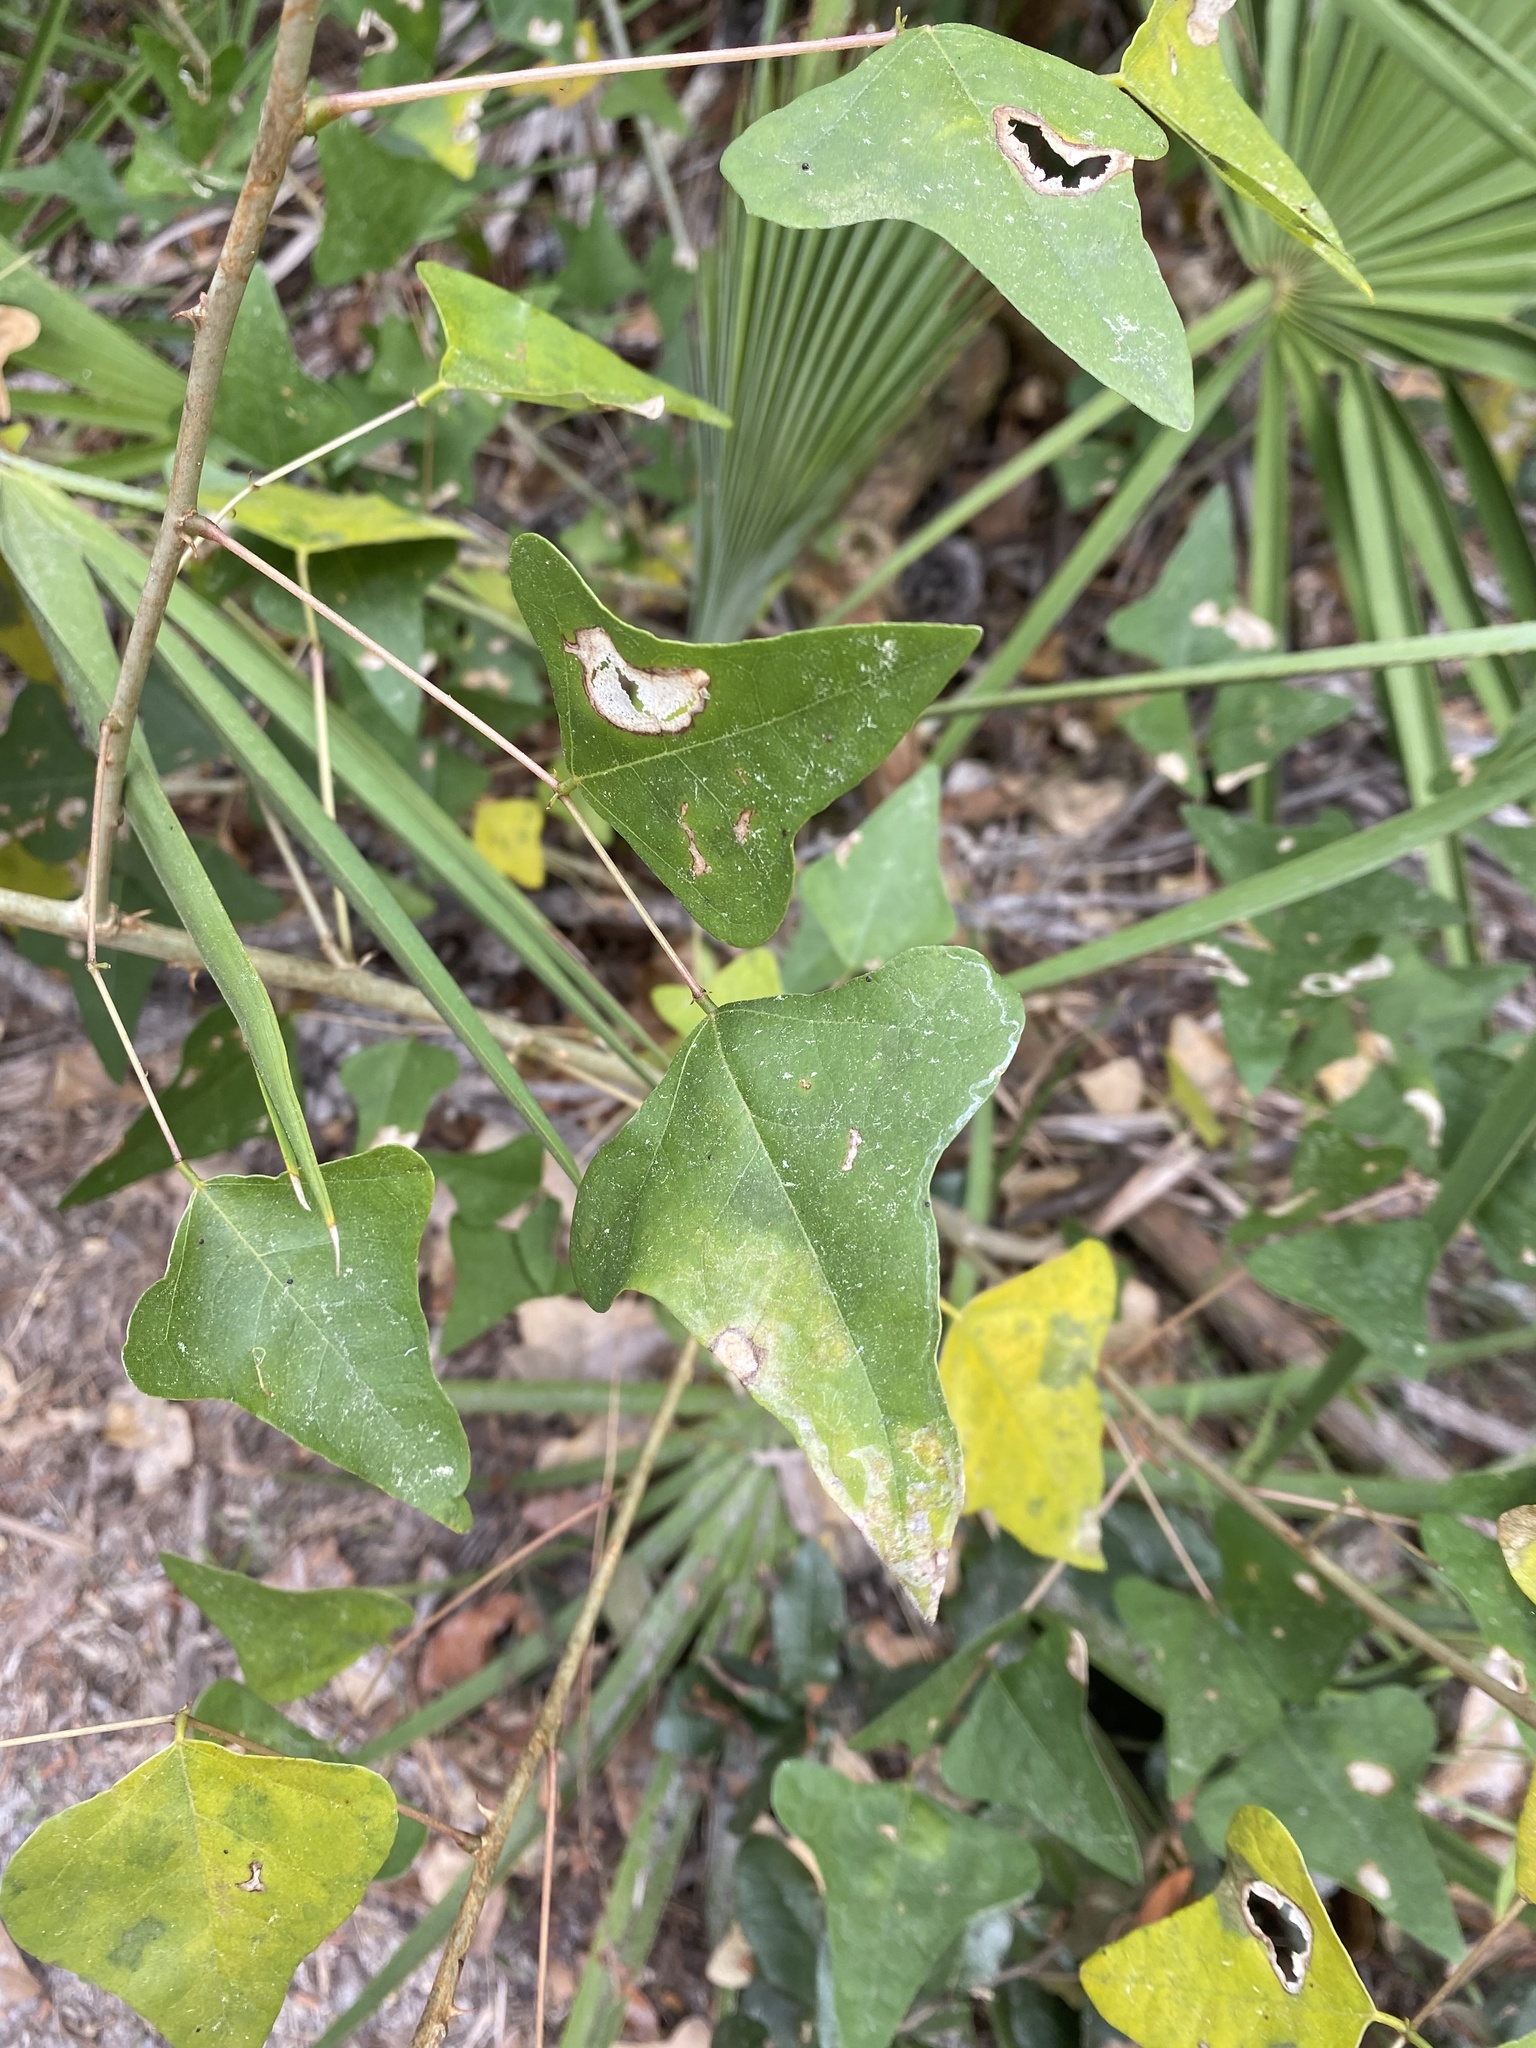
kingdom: Plantae
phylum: Tracheophyta
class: Magnoliopsida
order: Fabales
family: Fabaceae
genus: Erythrina
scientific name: Erythrina herbacea
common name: Coral-bean
